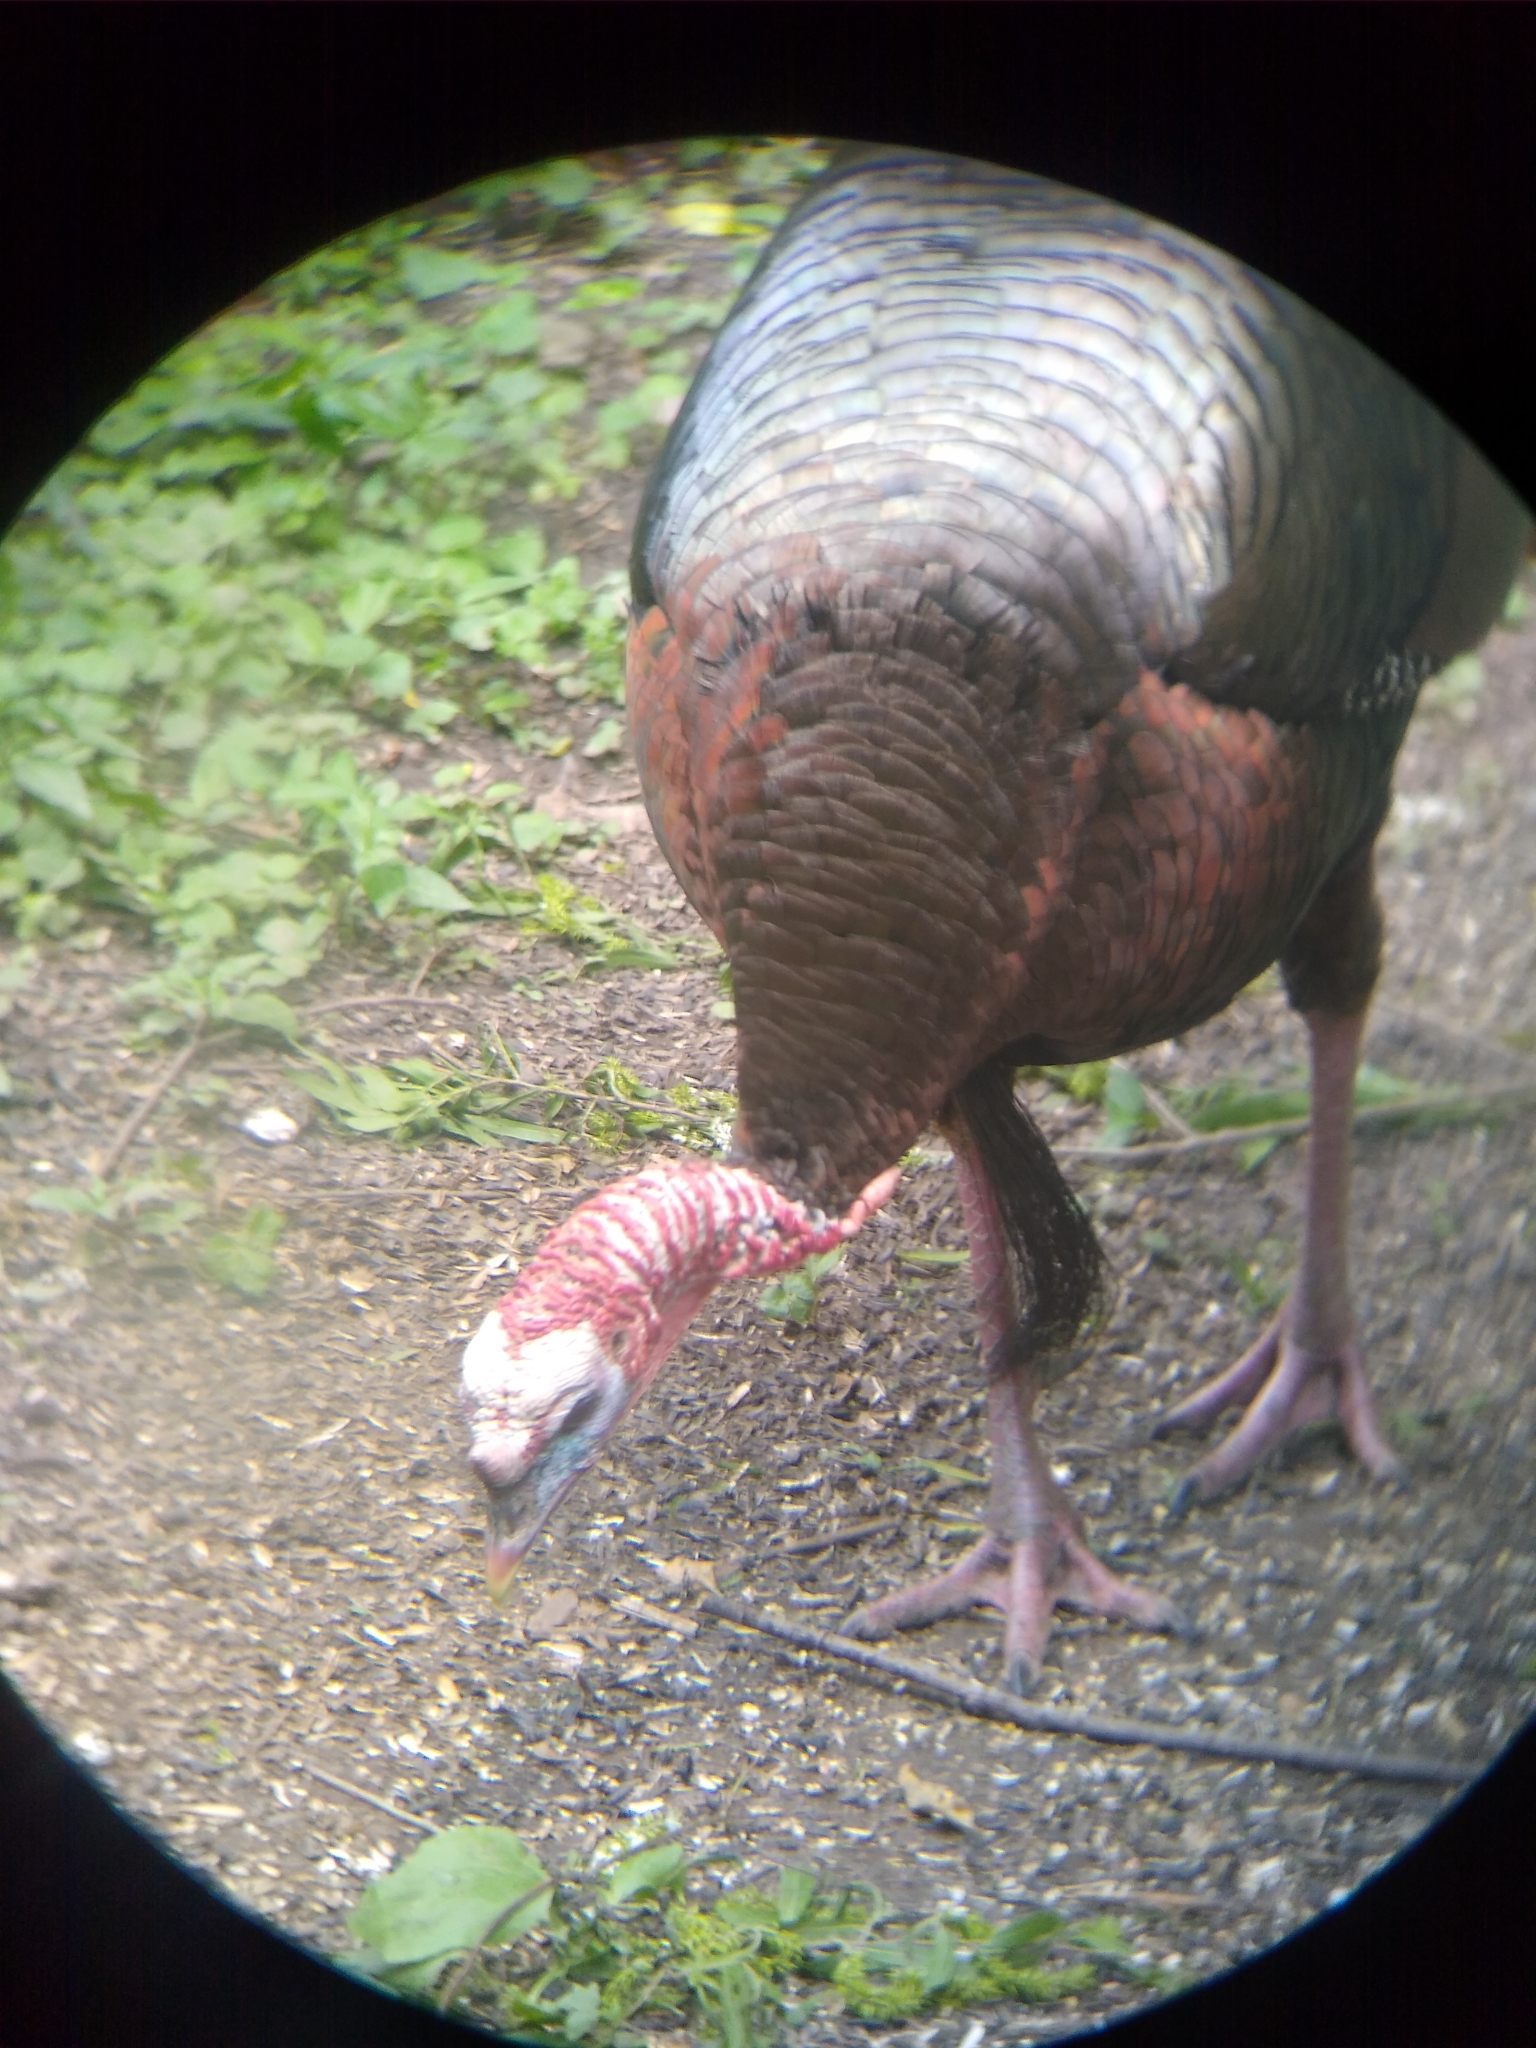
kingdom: Animalia
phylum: Chordata
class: Aves
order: Galliformes
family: Phasianidae
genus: Meleagris
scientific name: Meleagris gallopavo
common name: Wild turkey
